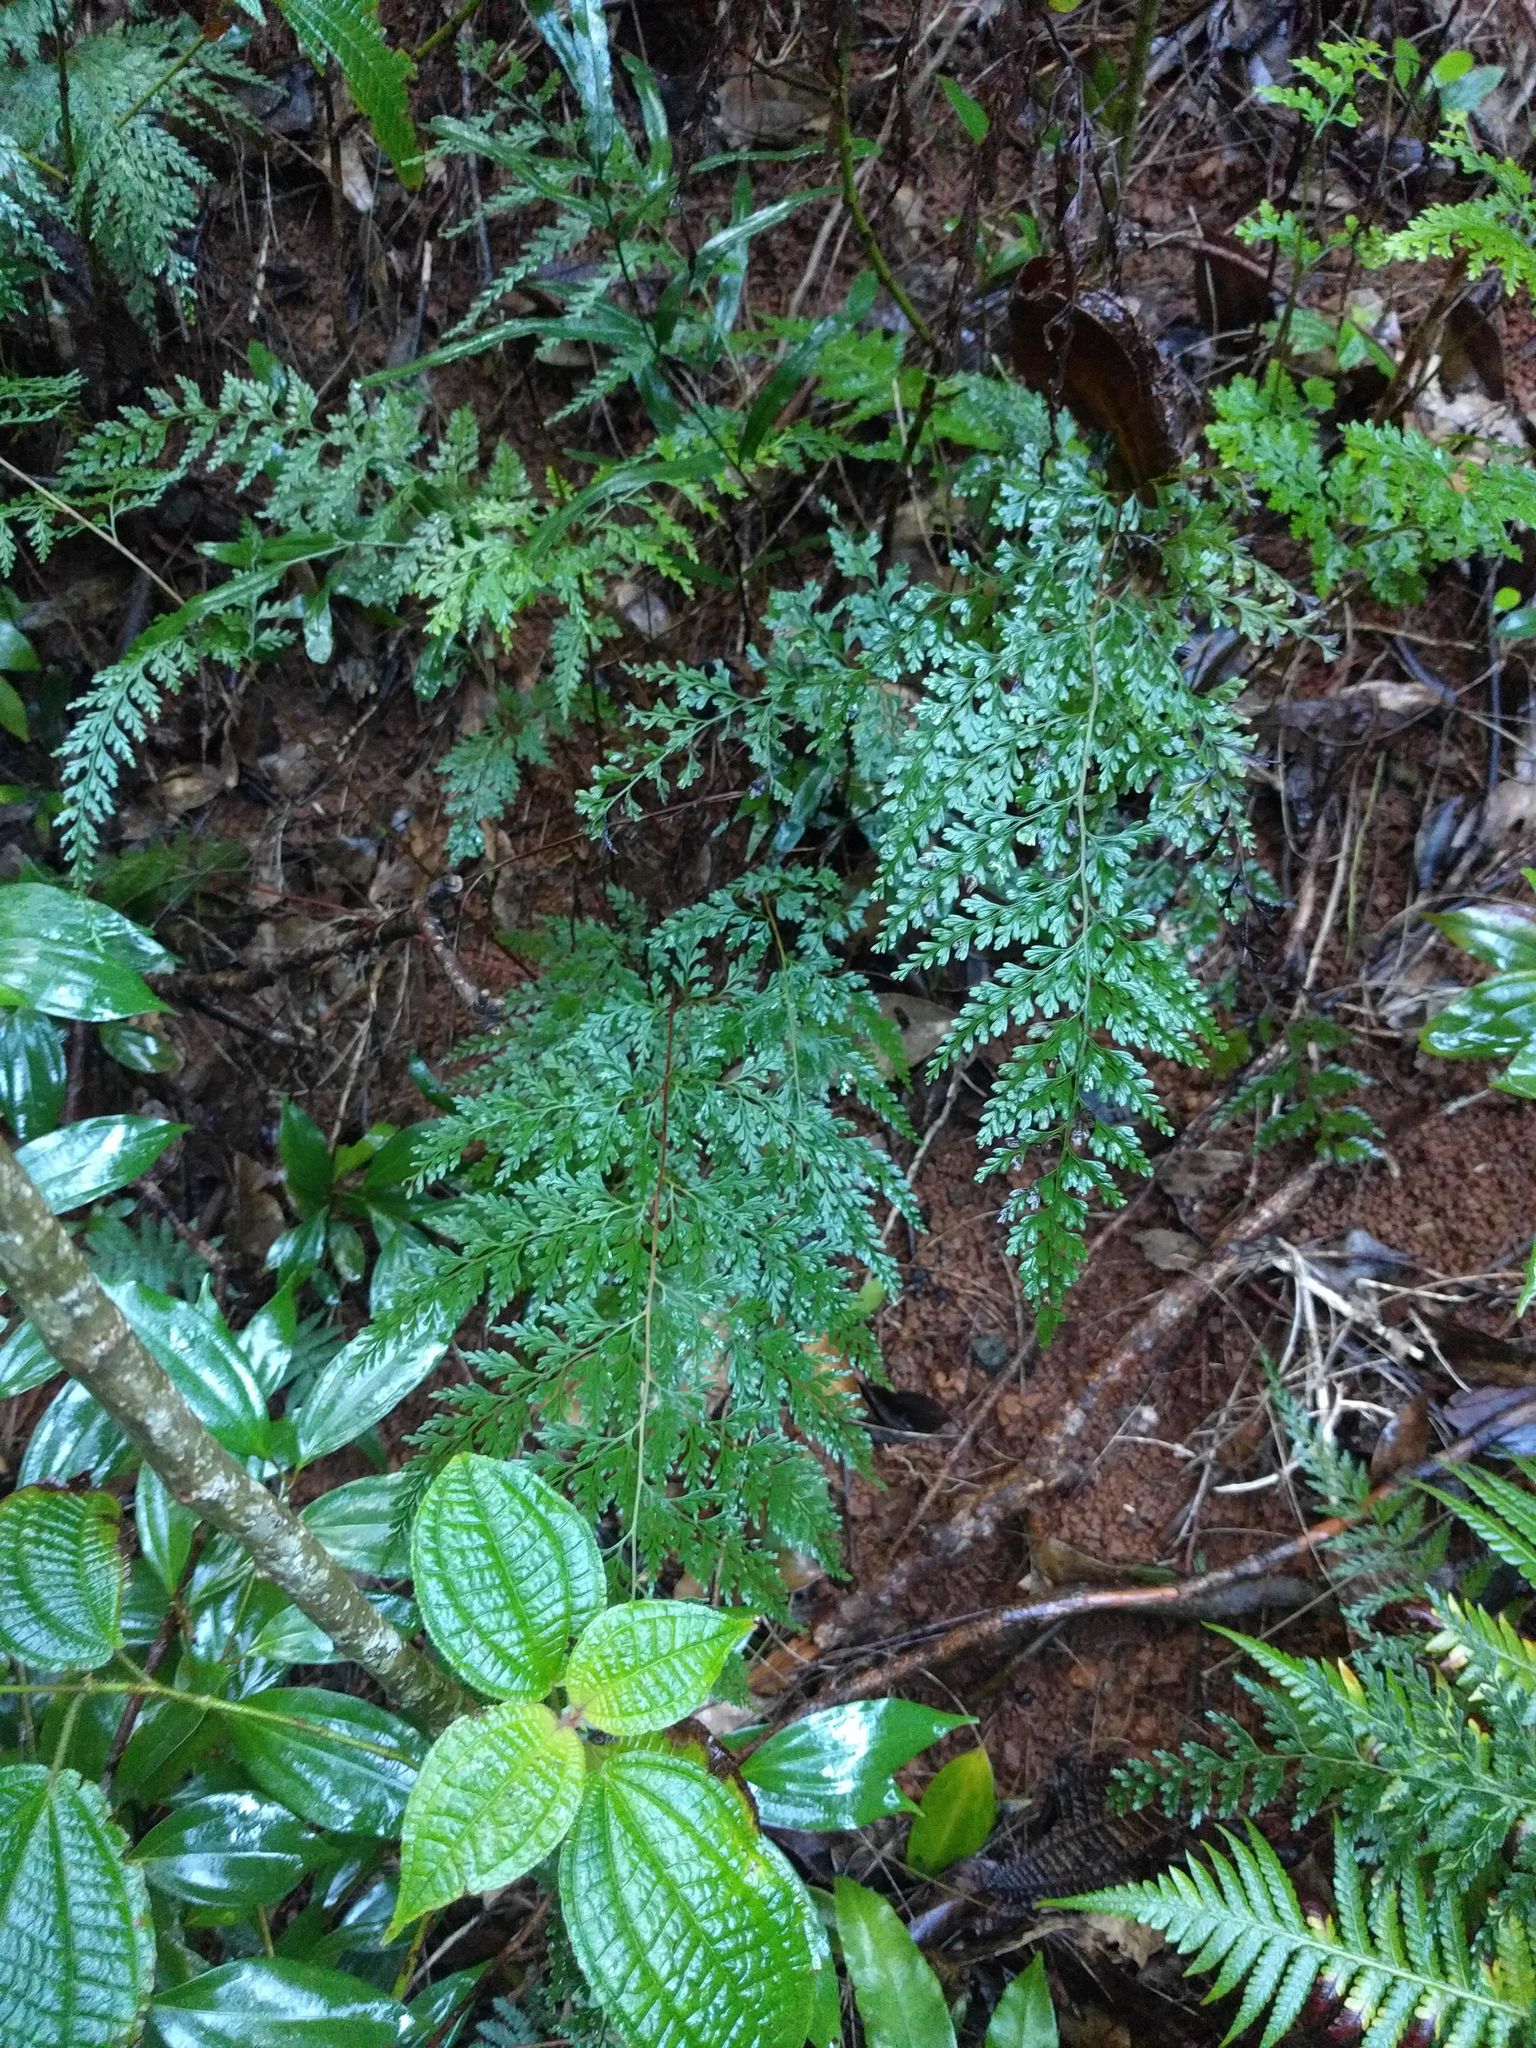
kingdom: Plantae
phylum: Tracheophyta
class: Polypodiopsida
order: Polypodiales
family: Lindsaeaceae
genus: Odontosoria
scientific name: Odontosoria chinensis
